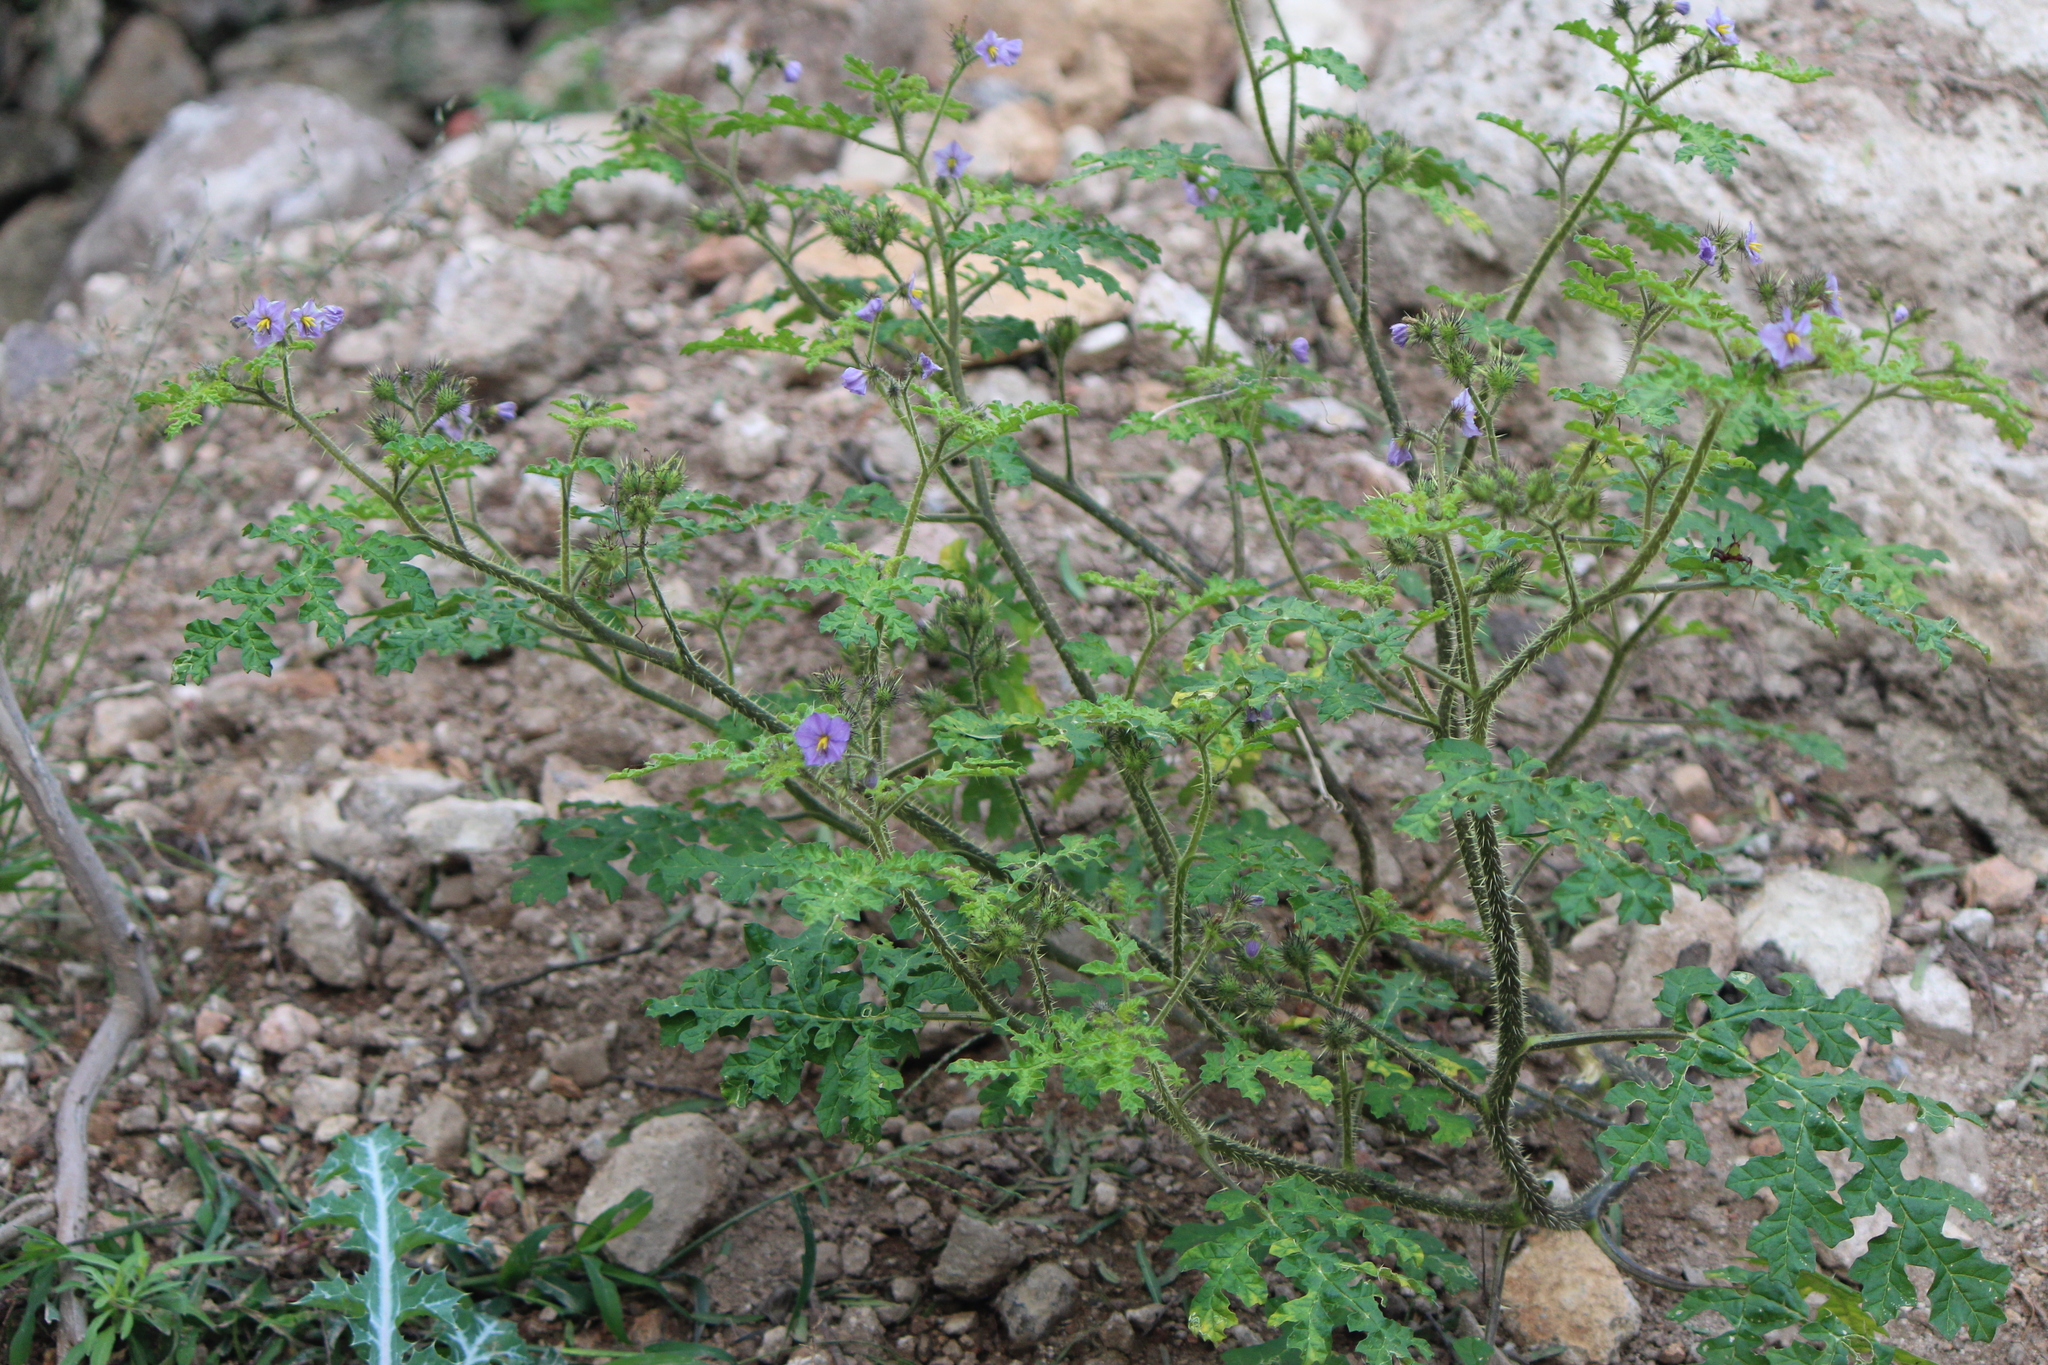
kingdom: Plantae
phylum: Tracheophyta
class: Magnoliopsida
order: Solanales
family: Solanaceae
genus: Solanum
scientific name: Solanum heterodoxum
